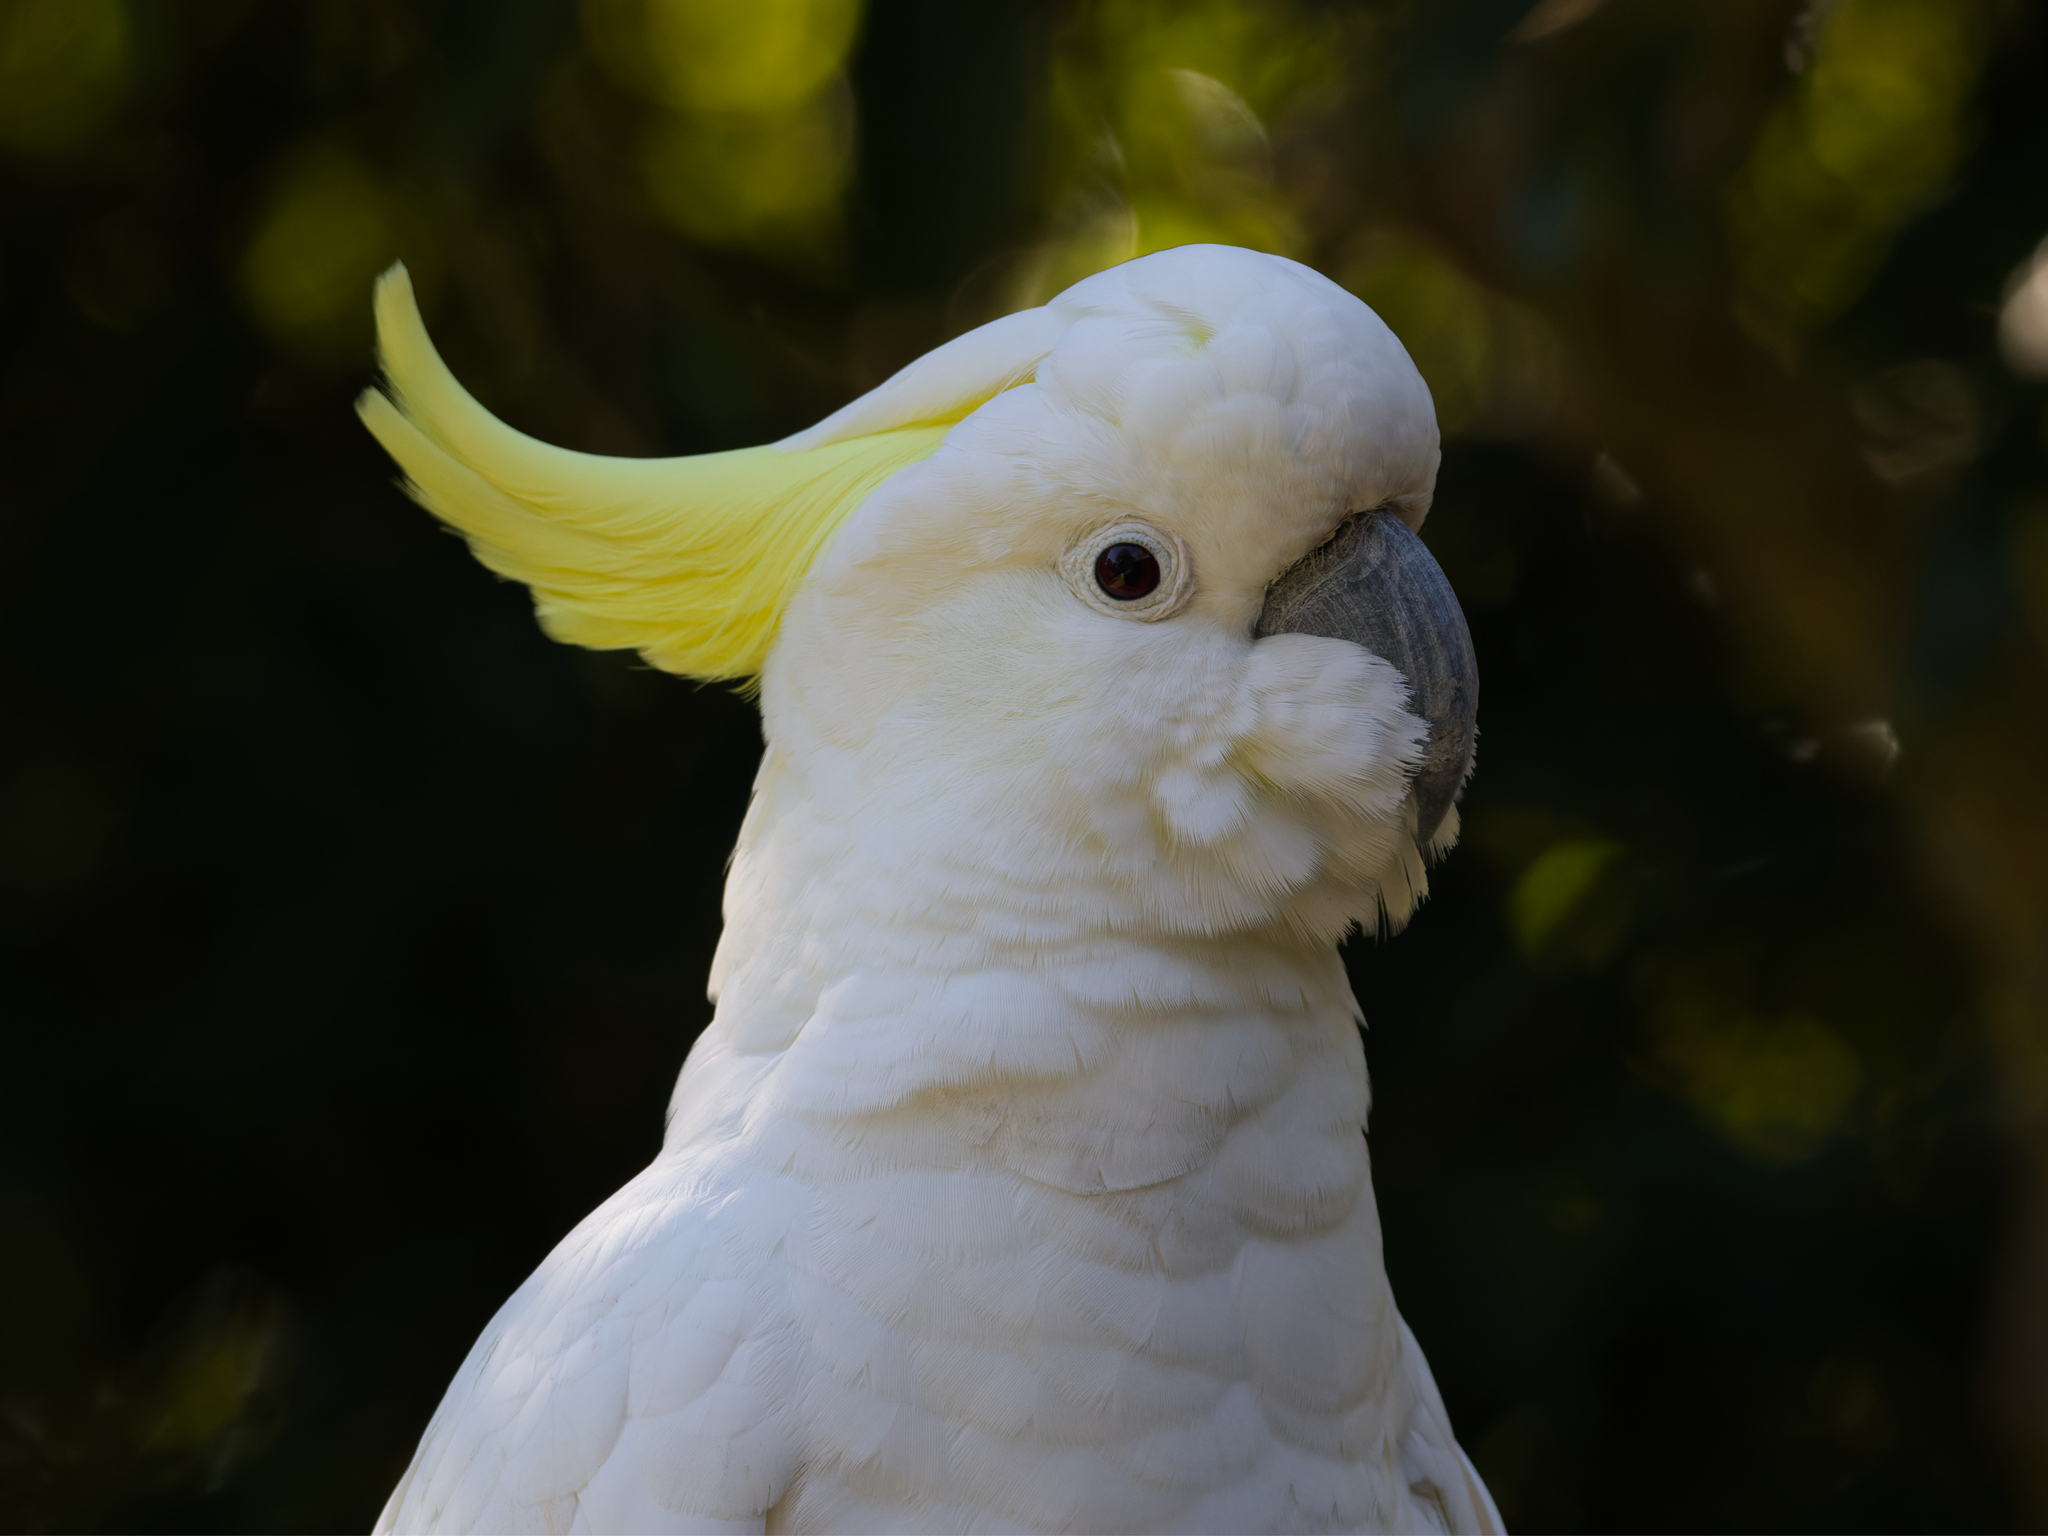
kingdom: Animalia
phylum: Chordata
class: Aves
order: Psittaciformes
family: Psittacidae
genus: Cacatua
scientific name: Cacatua galerita
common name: Sulphur-crested cockatoo
